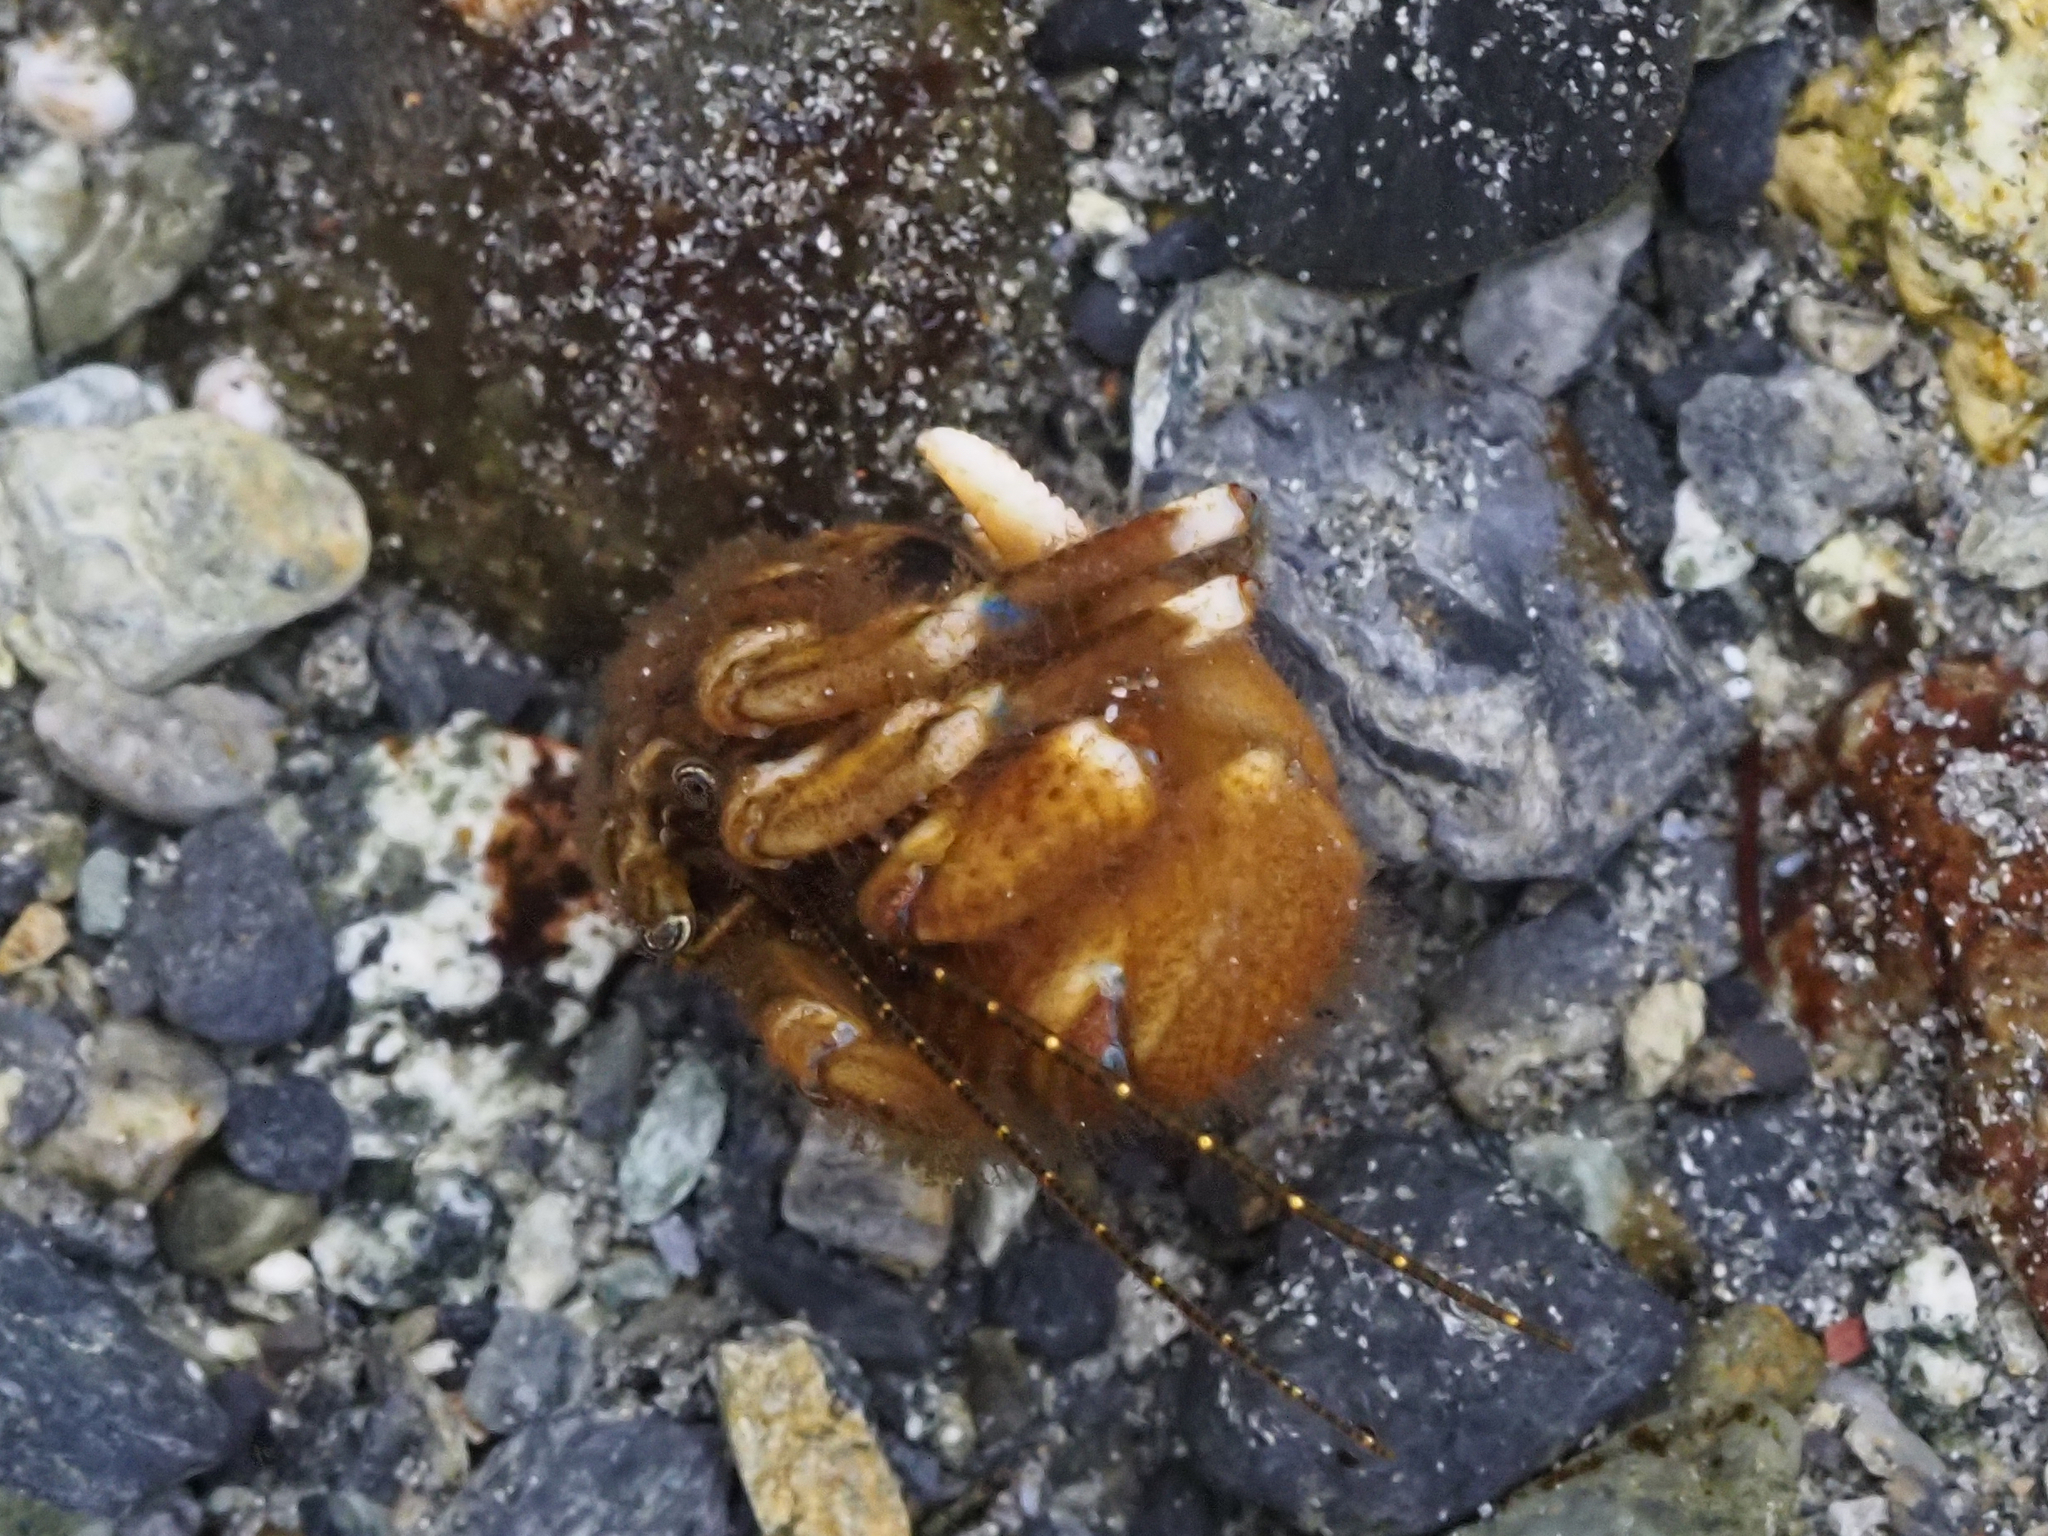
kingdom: Animalia
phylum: Arthropoda
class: Malacostraca
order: Decapoda
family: Paguridae
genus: Pagurus
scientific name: Pagurus hirsutiusculus
